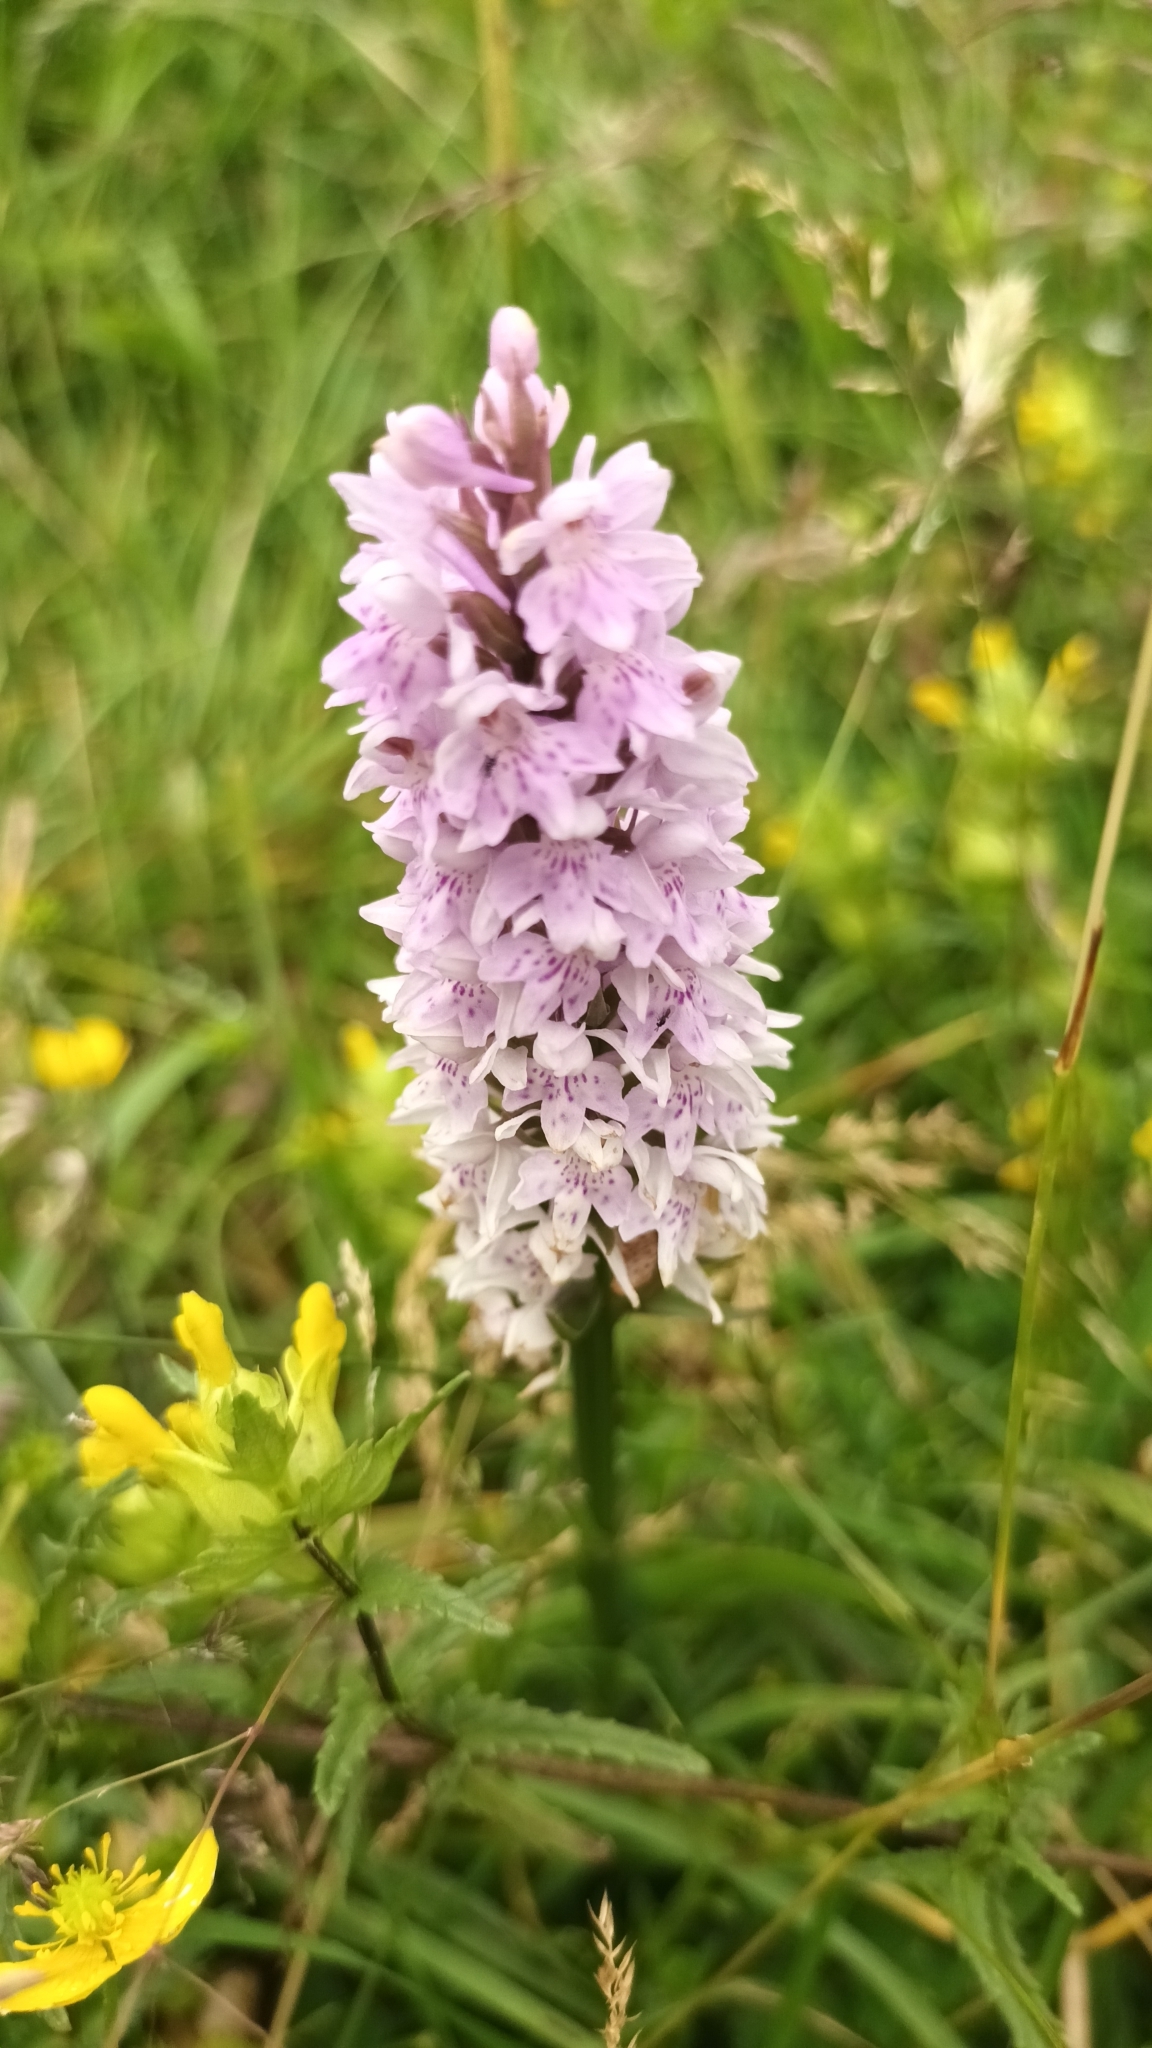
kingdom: Plantae
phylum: Tracheophyta
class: Liliopsida
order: Asparagales
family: Orchidaceae
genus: Dactylorhiza
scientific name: Dactylorhiza maculata
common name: Heath spotted-orchid
